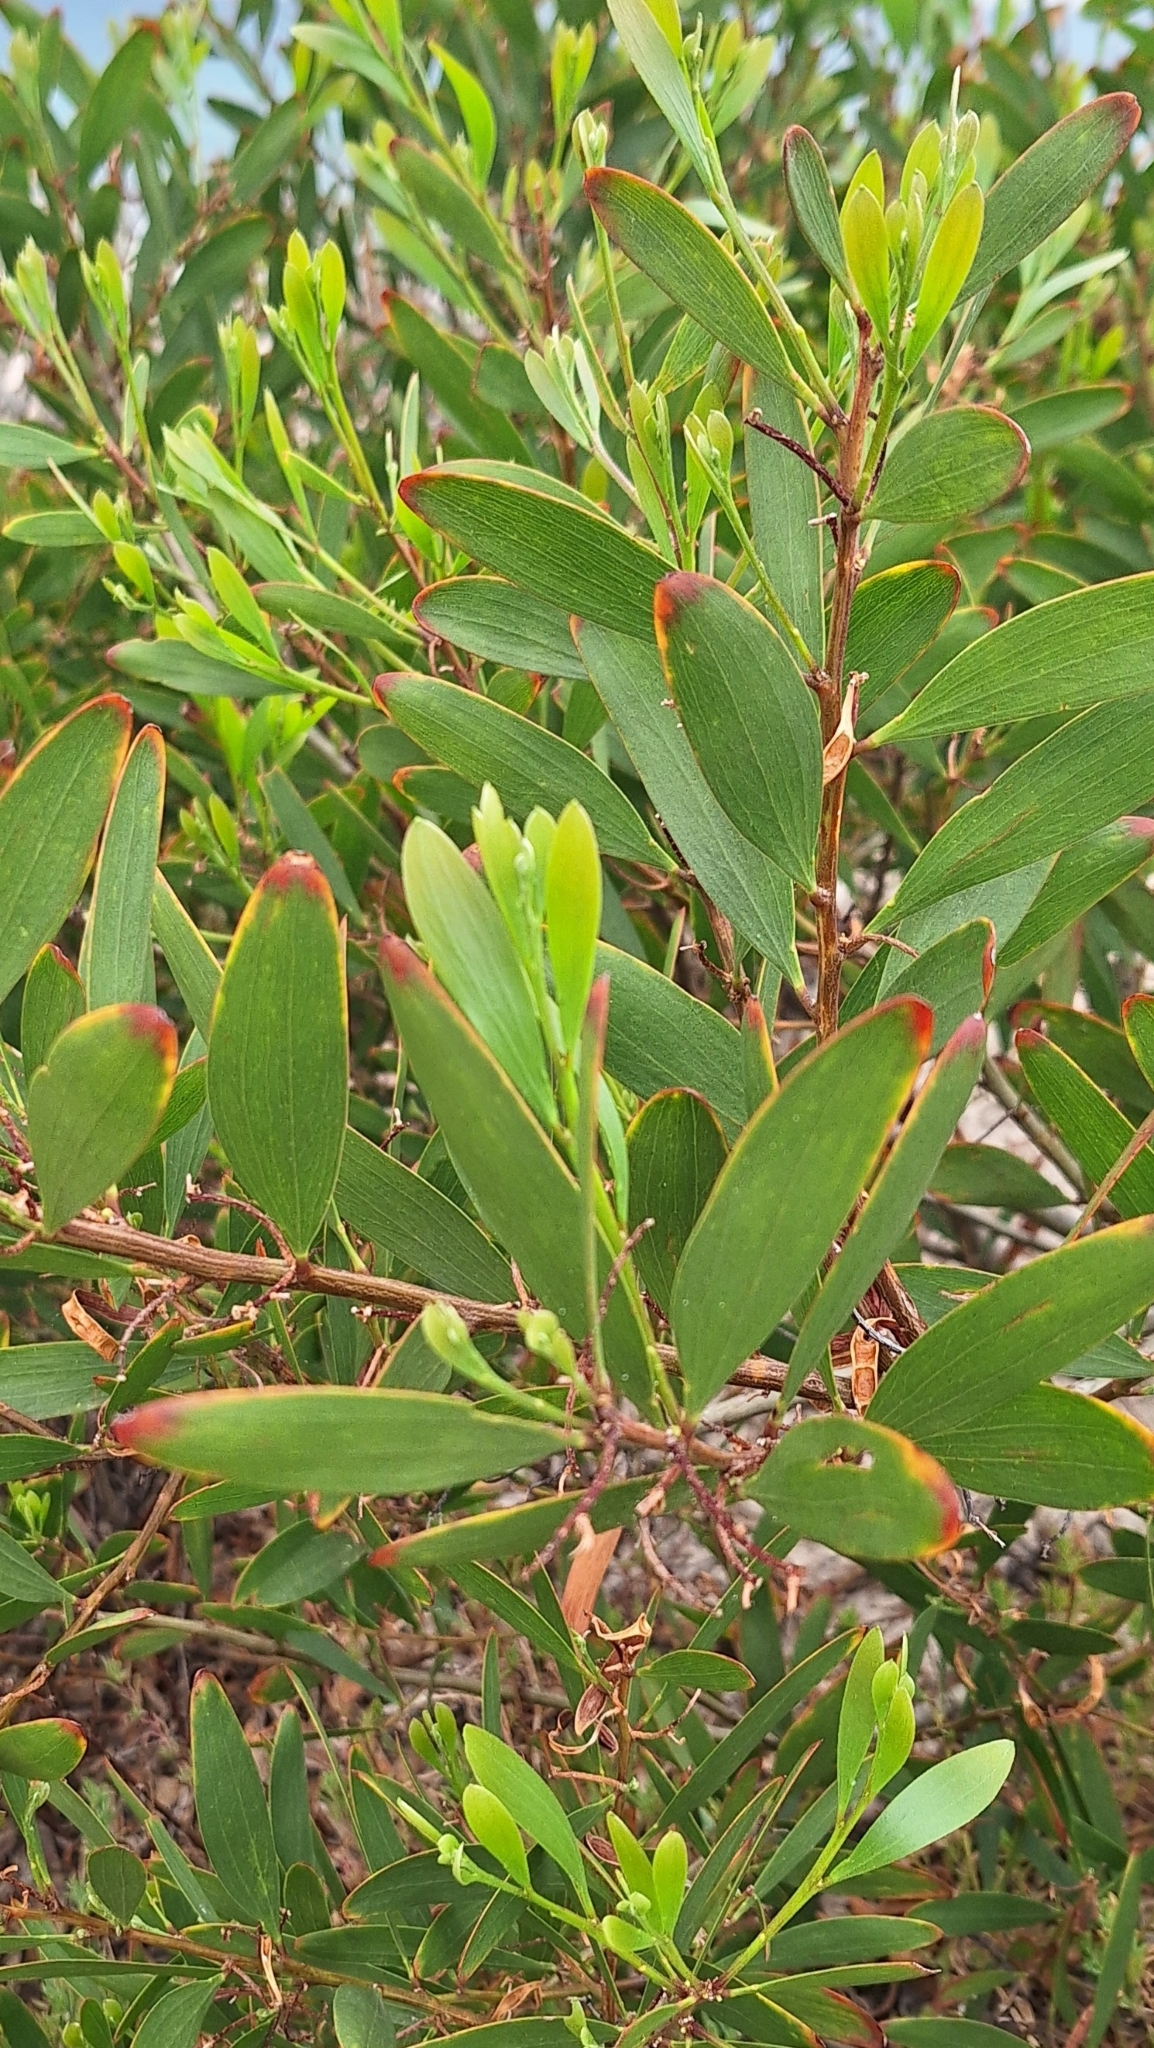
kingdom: Plantae
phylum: Tracheophyta
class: Magnoliopsida
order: Fabales
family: Fabaceae
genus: Acacia
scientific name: Acacia longifolia
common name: Sydney golden wattle
